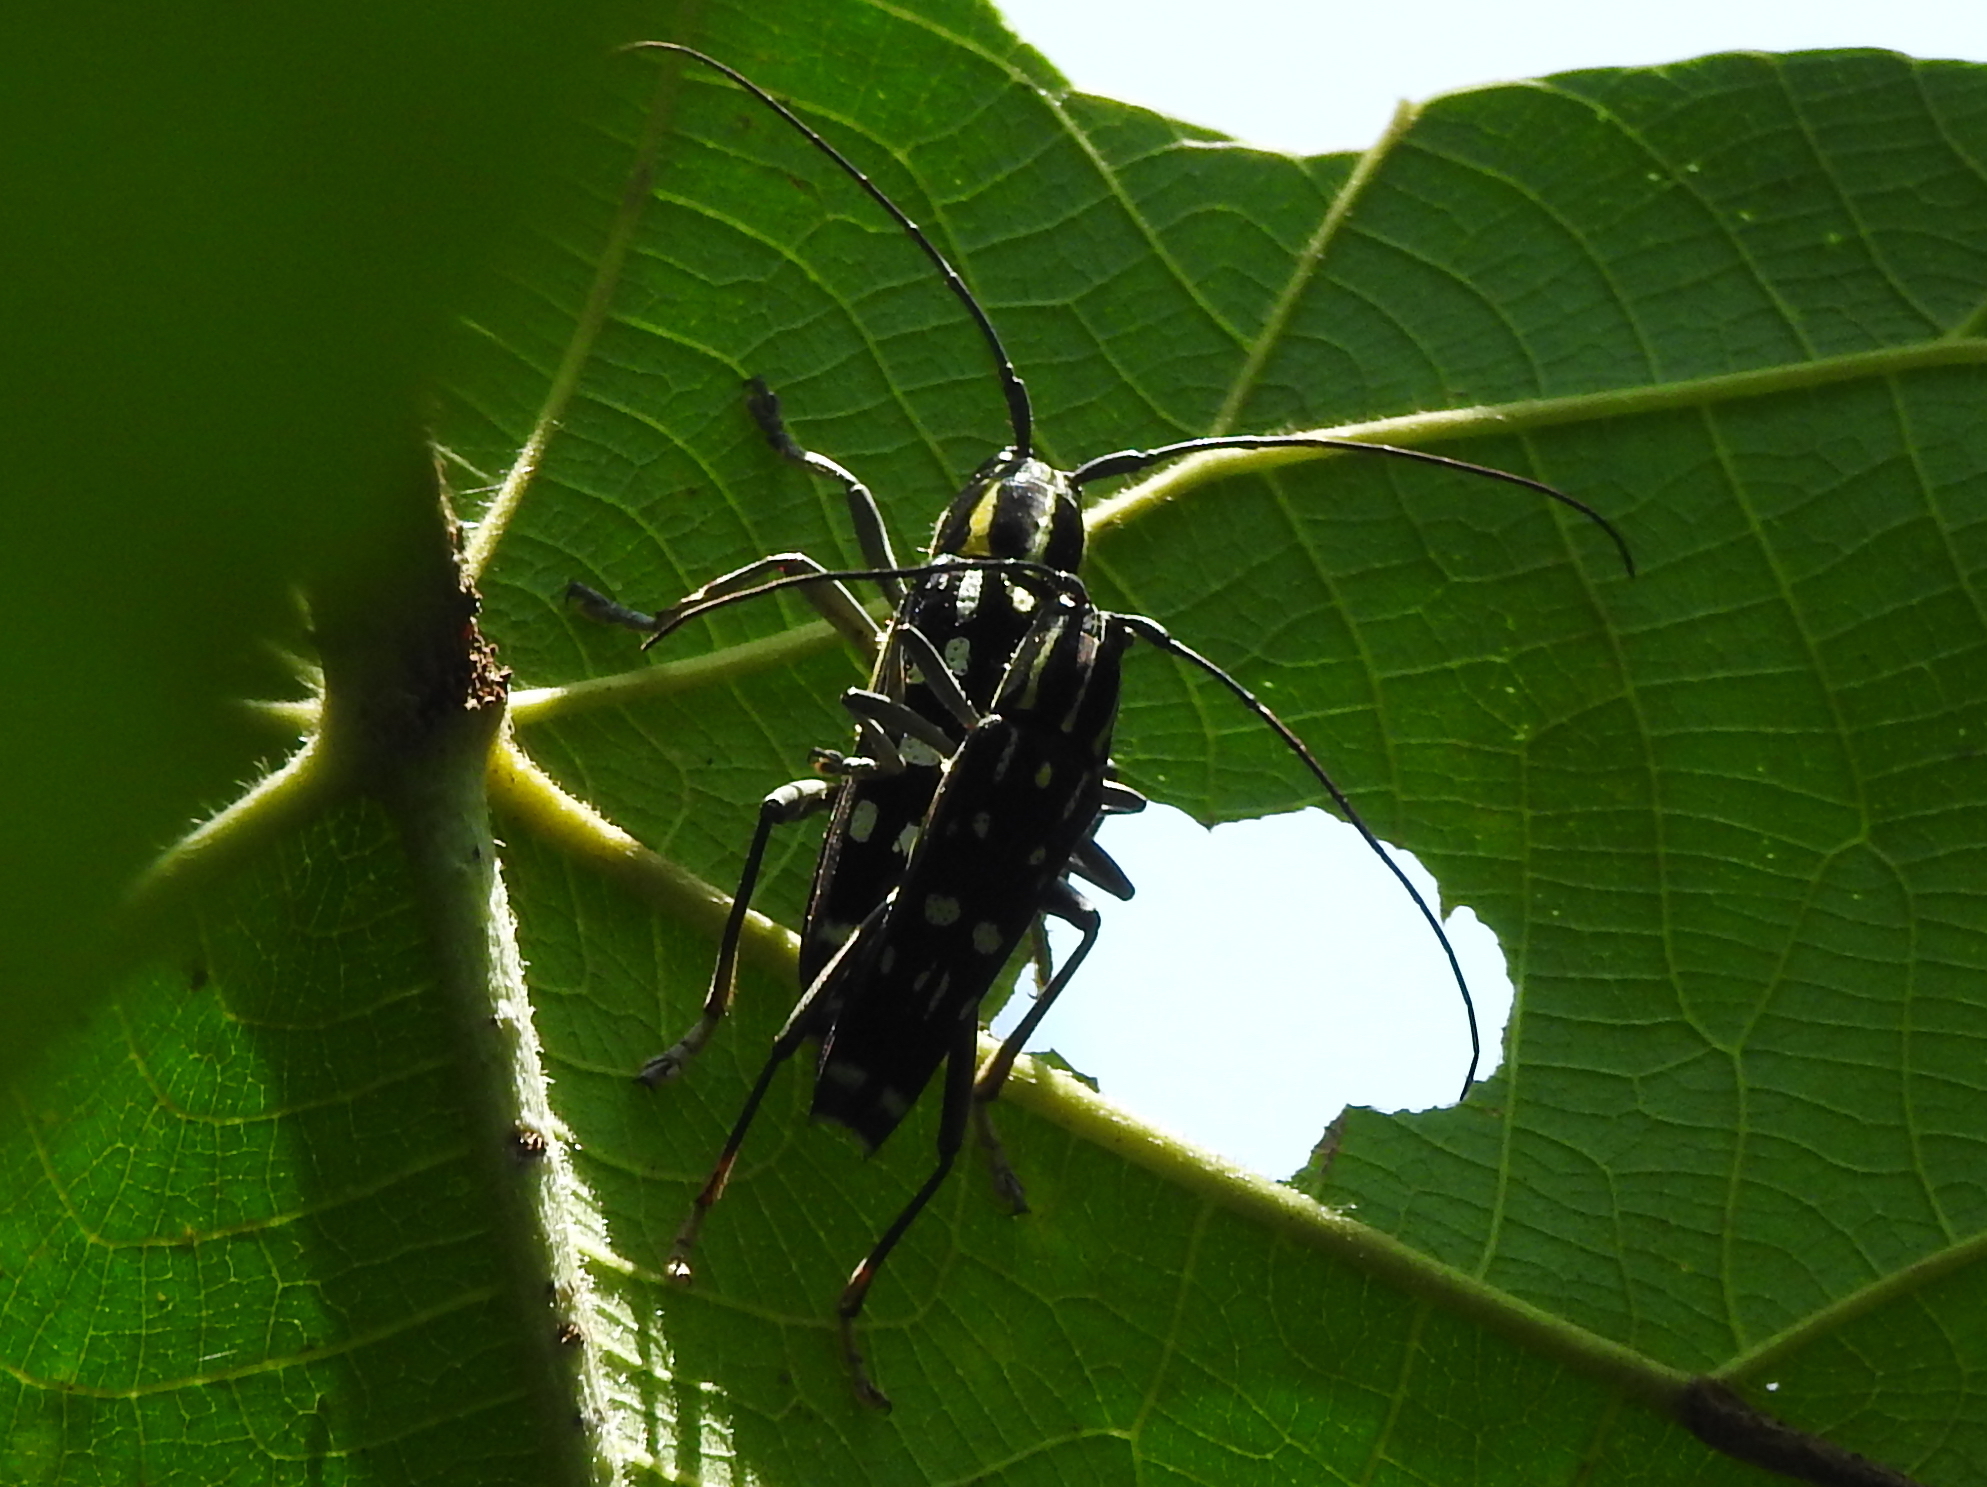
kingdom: Animalia
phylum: Arthropoda
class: Insecta
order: Coleoptera
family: Cerambycidae
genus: Glenea
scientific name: Glenea elegans
